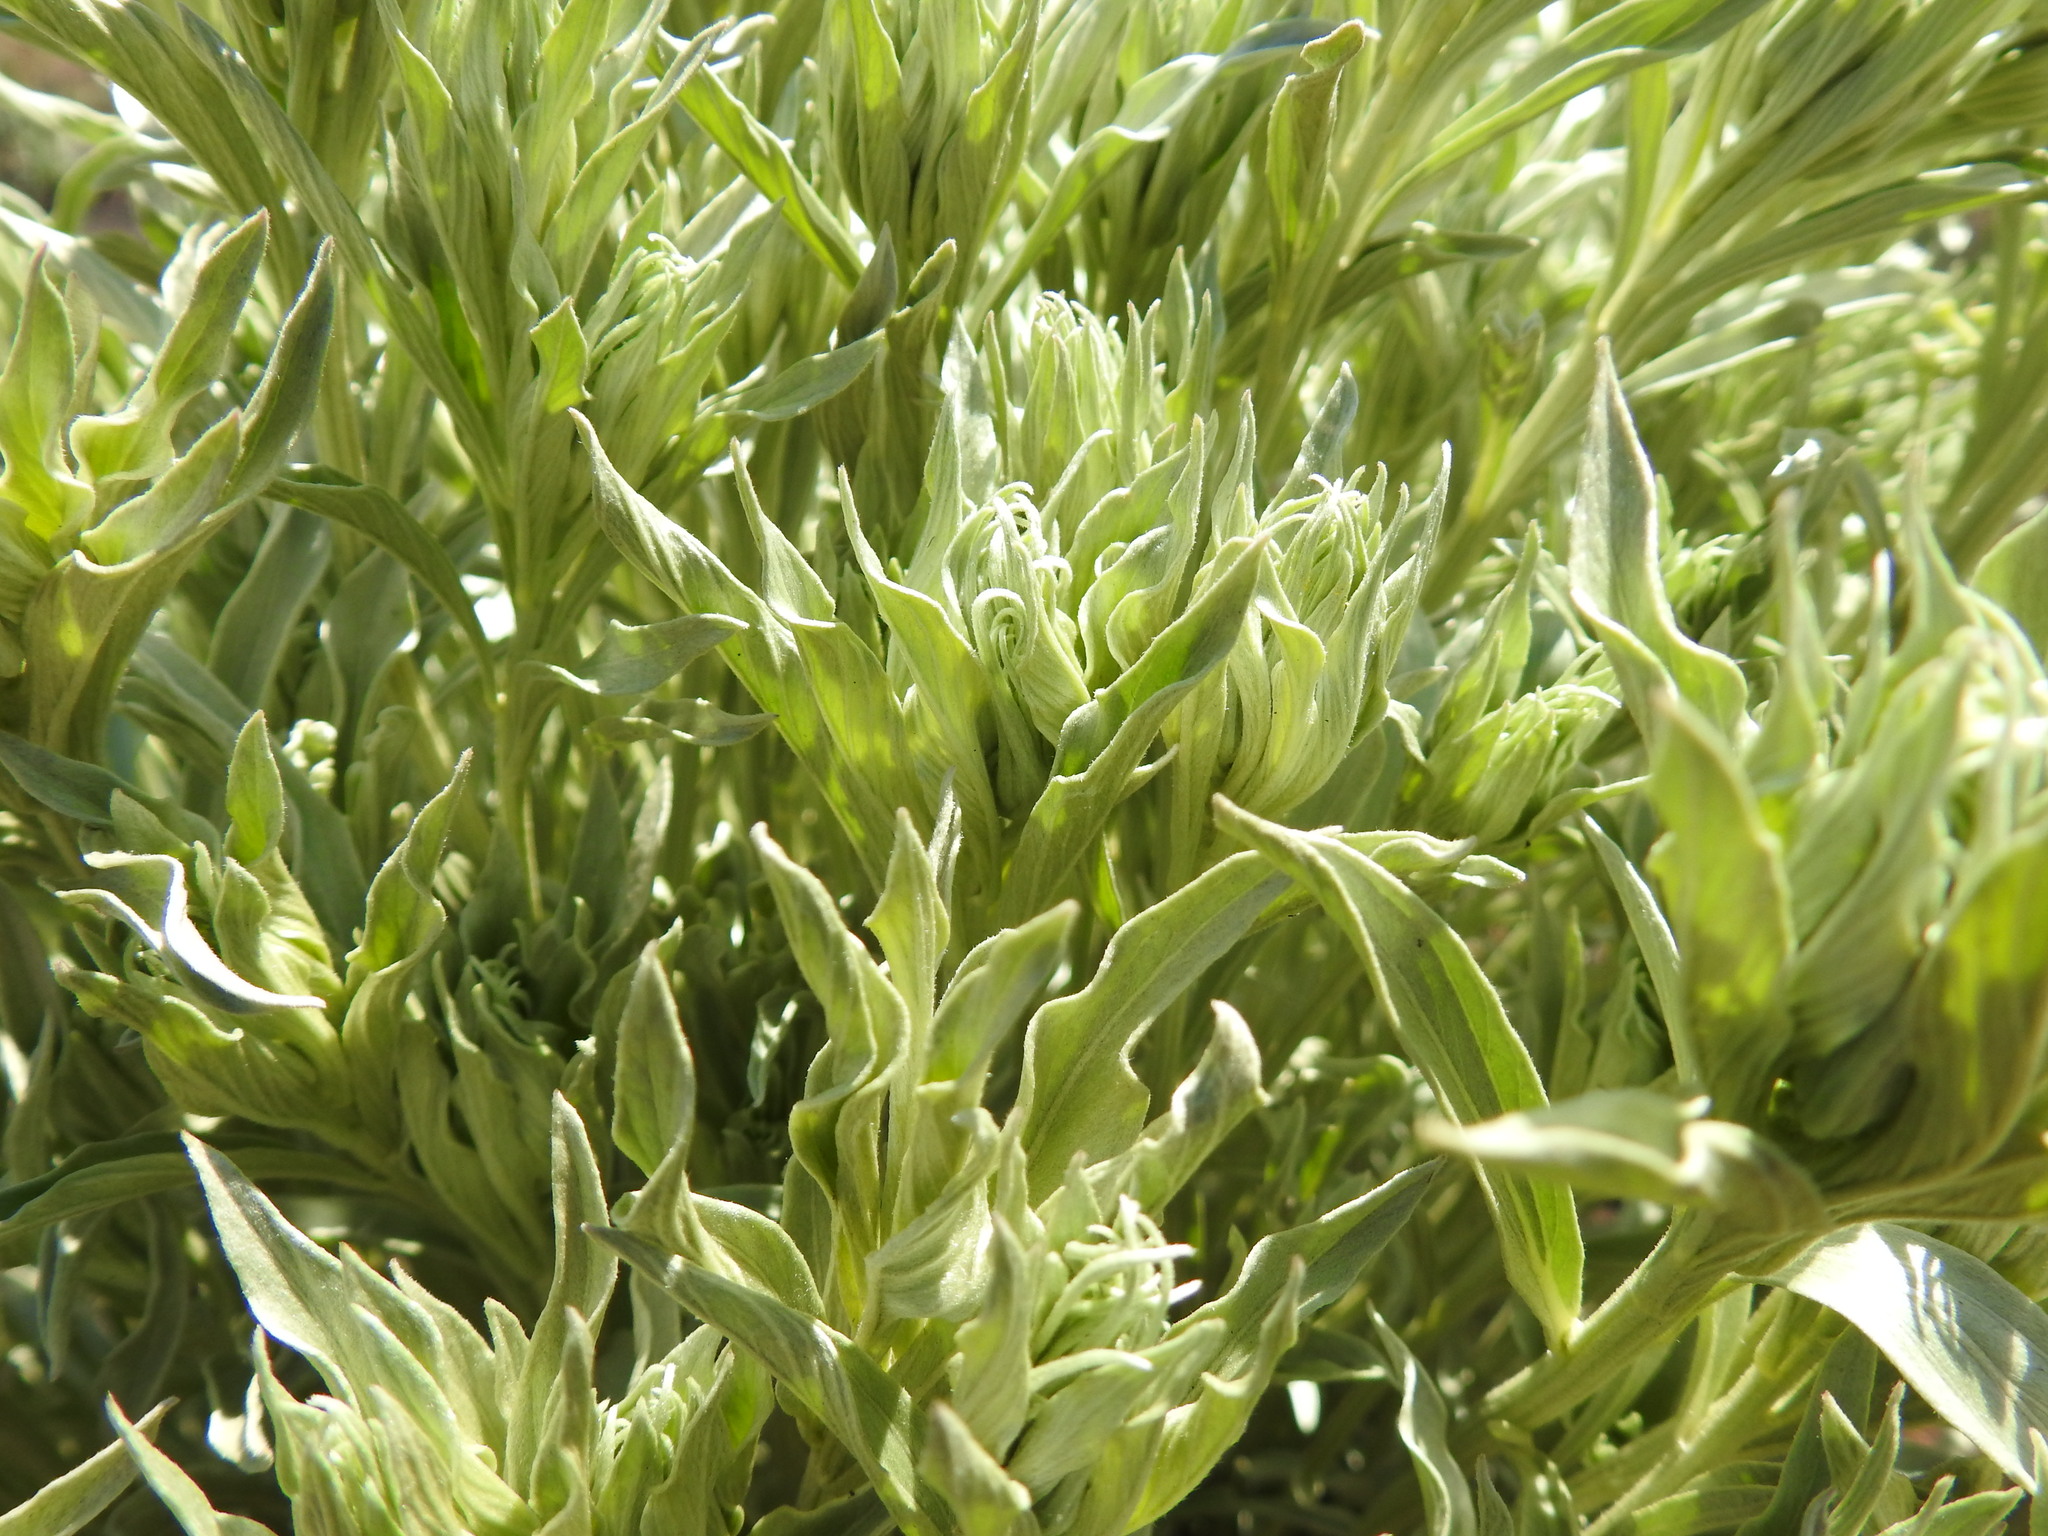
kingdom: Plantae
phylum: Tracheophyta
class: Magnoliopsida
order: Asterales
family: Asteraceae
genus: Hilliardiella
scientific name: Hilliardiella aristata
